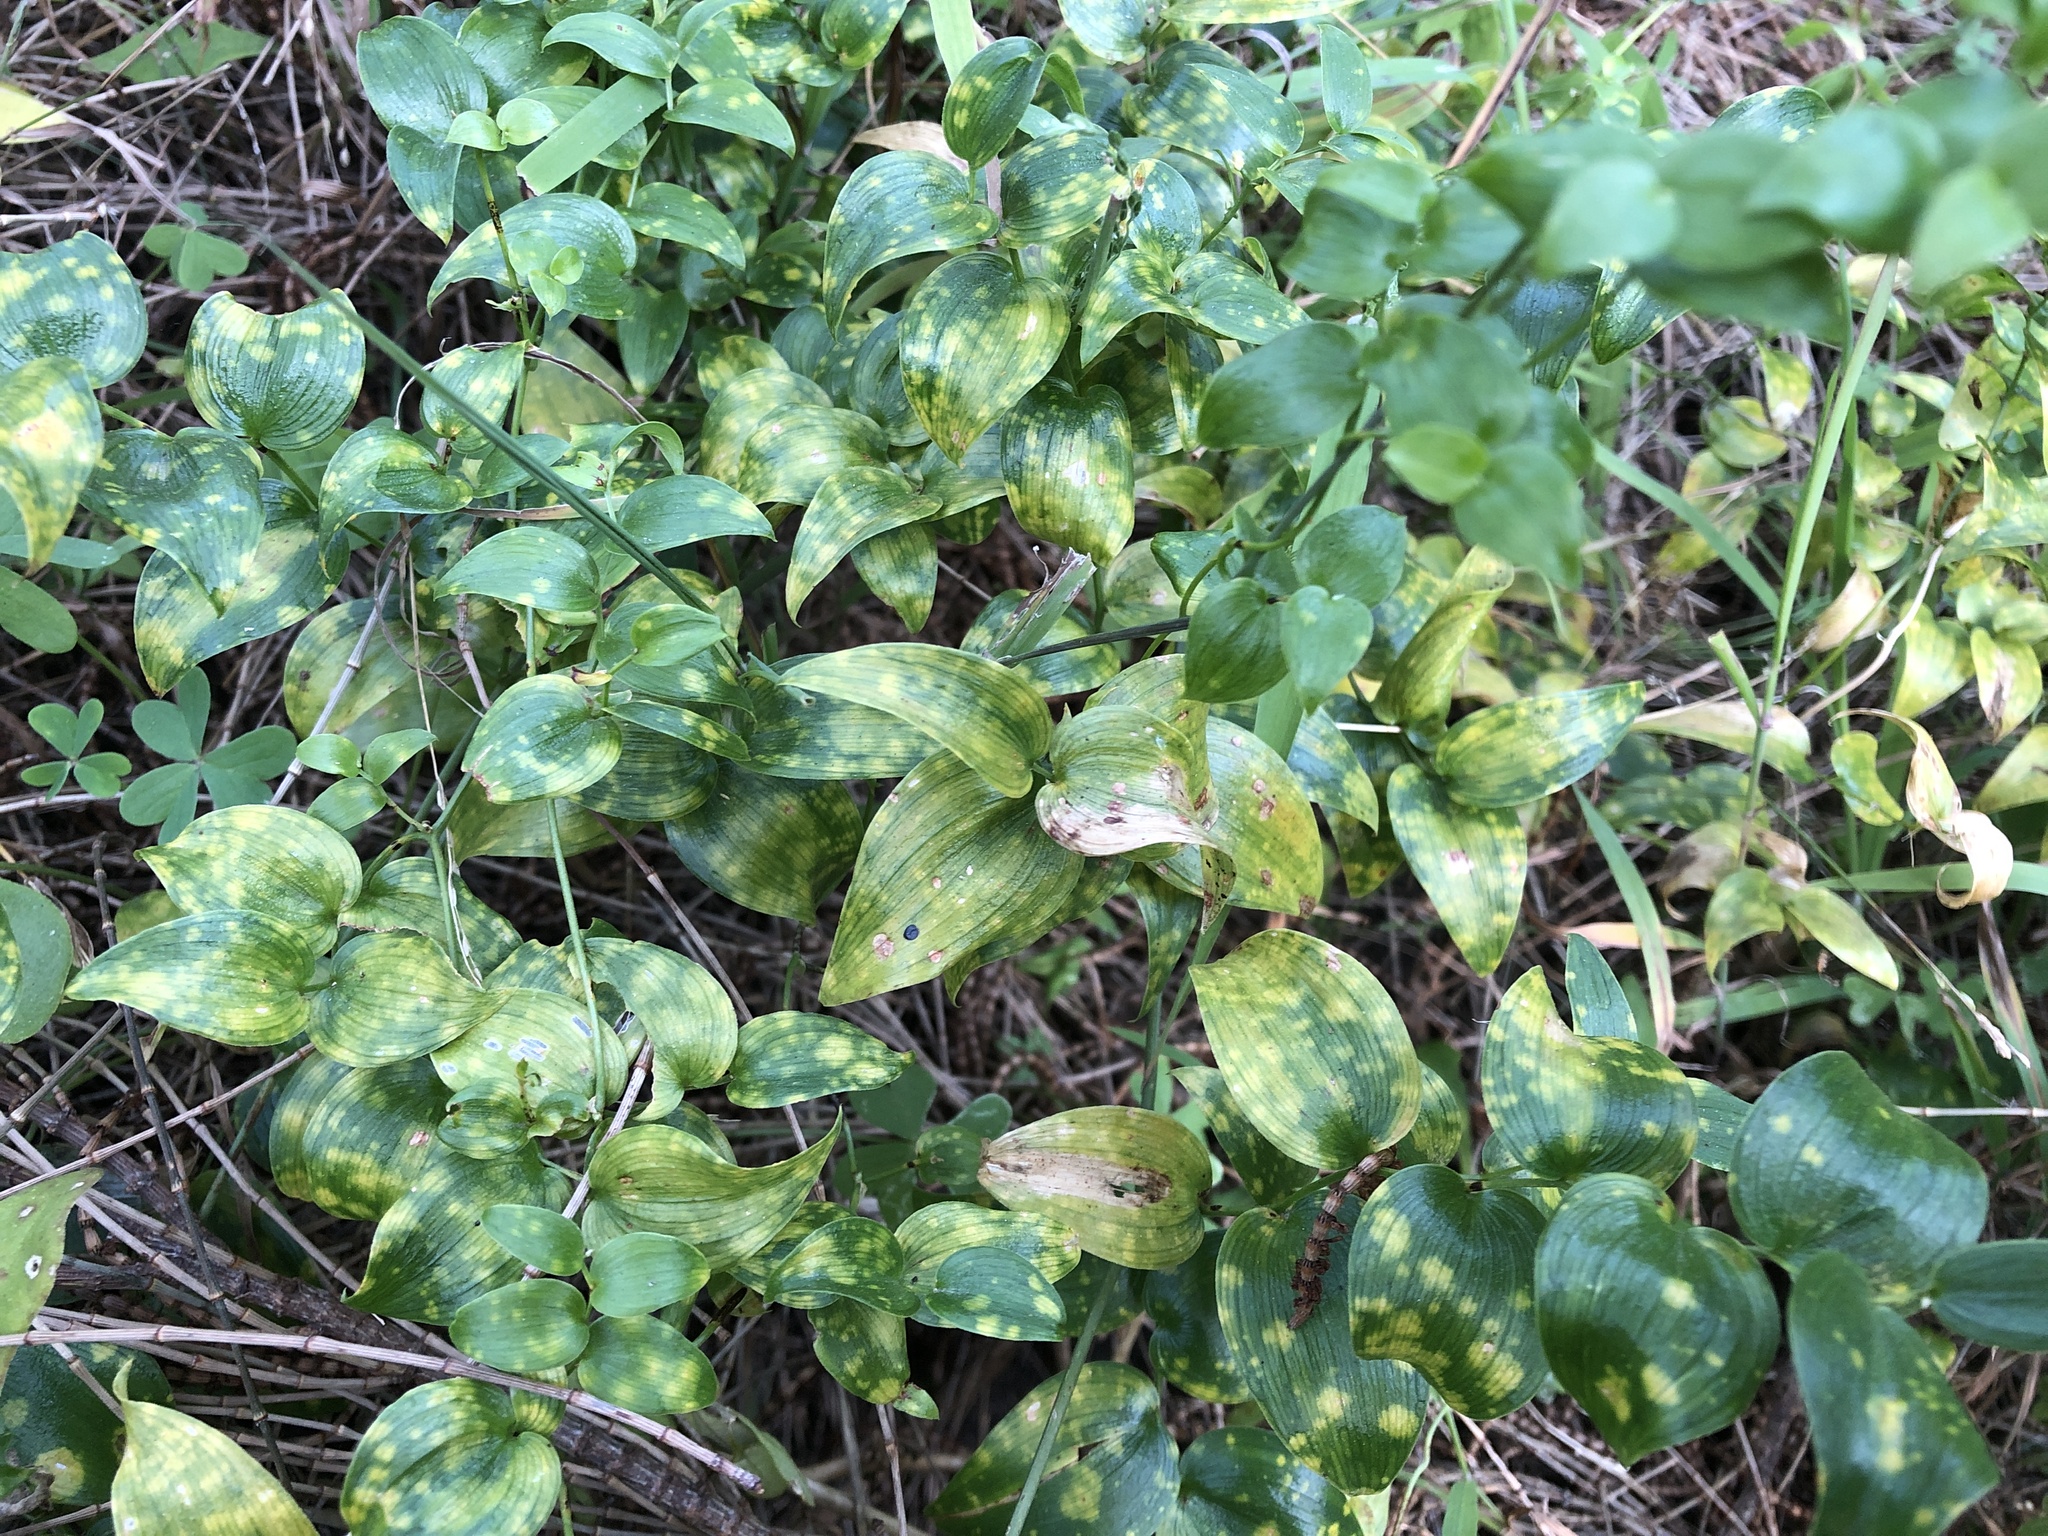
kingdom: Plantae
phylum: Tracheophyta
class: Liliopsida
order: Asparagales
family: Asparagaceae
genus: Asparagus
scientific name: Asparagus asparagoides
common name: African asparagus fern
